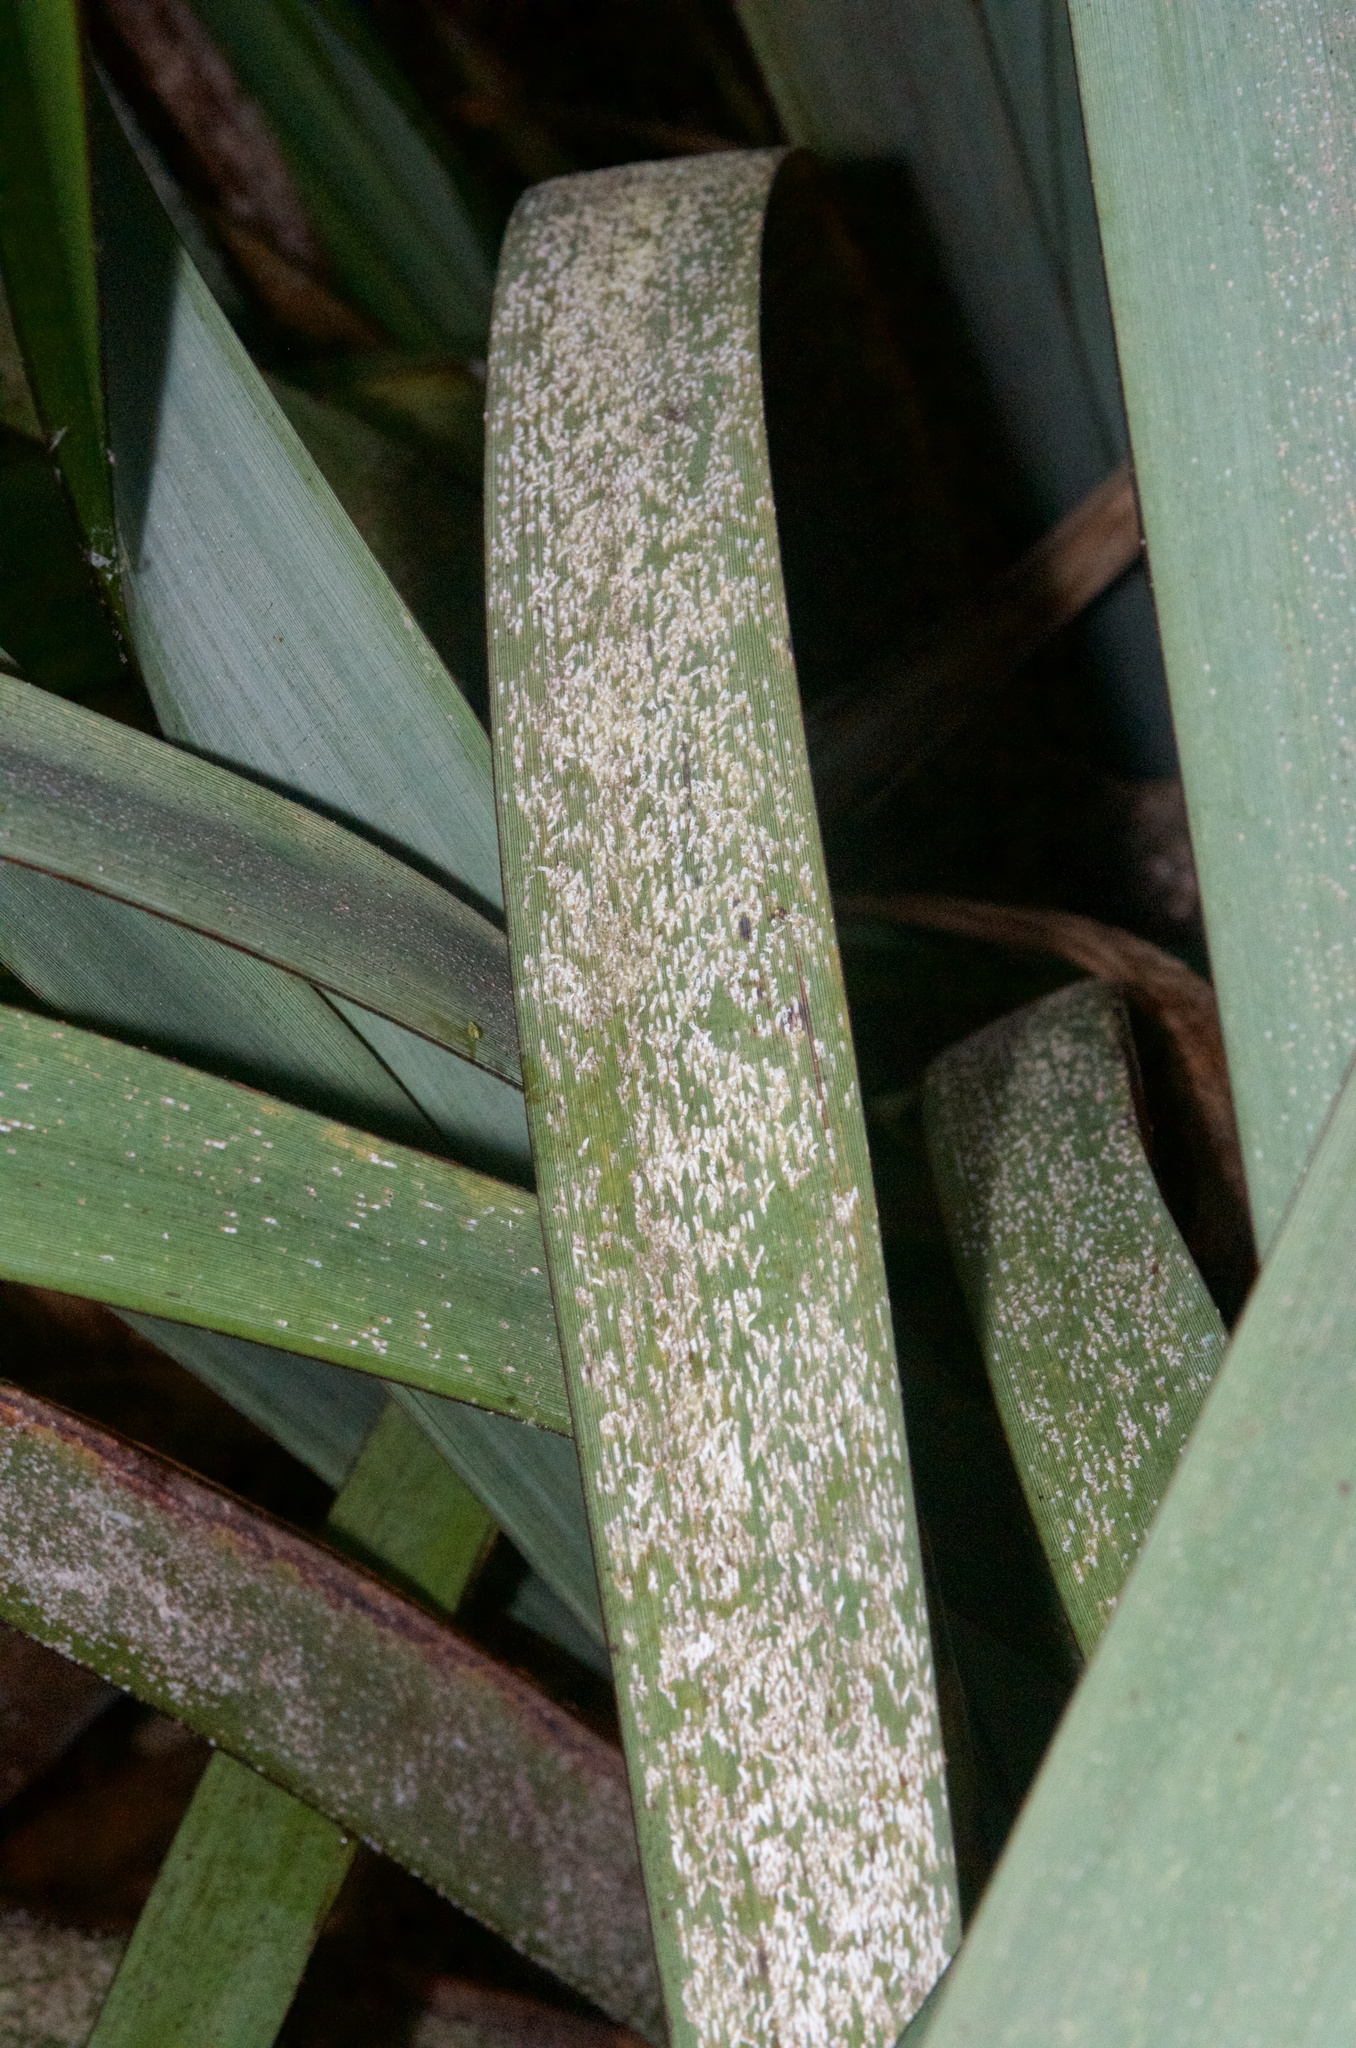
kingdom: Plantae
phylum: Tracheophyta
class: Liliopsida
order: Asparagales
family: Asphodelaceae
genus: Phormium
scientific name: Phormium colensoi
